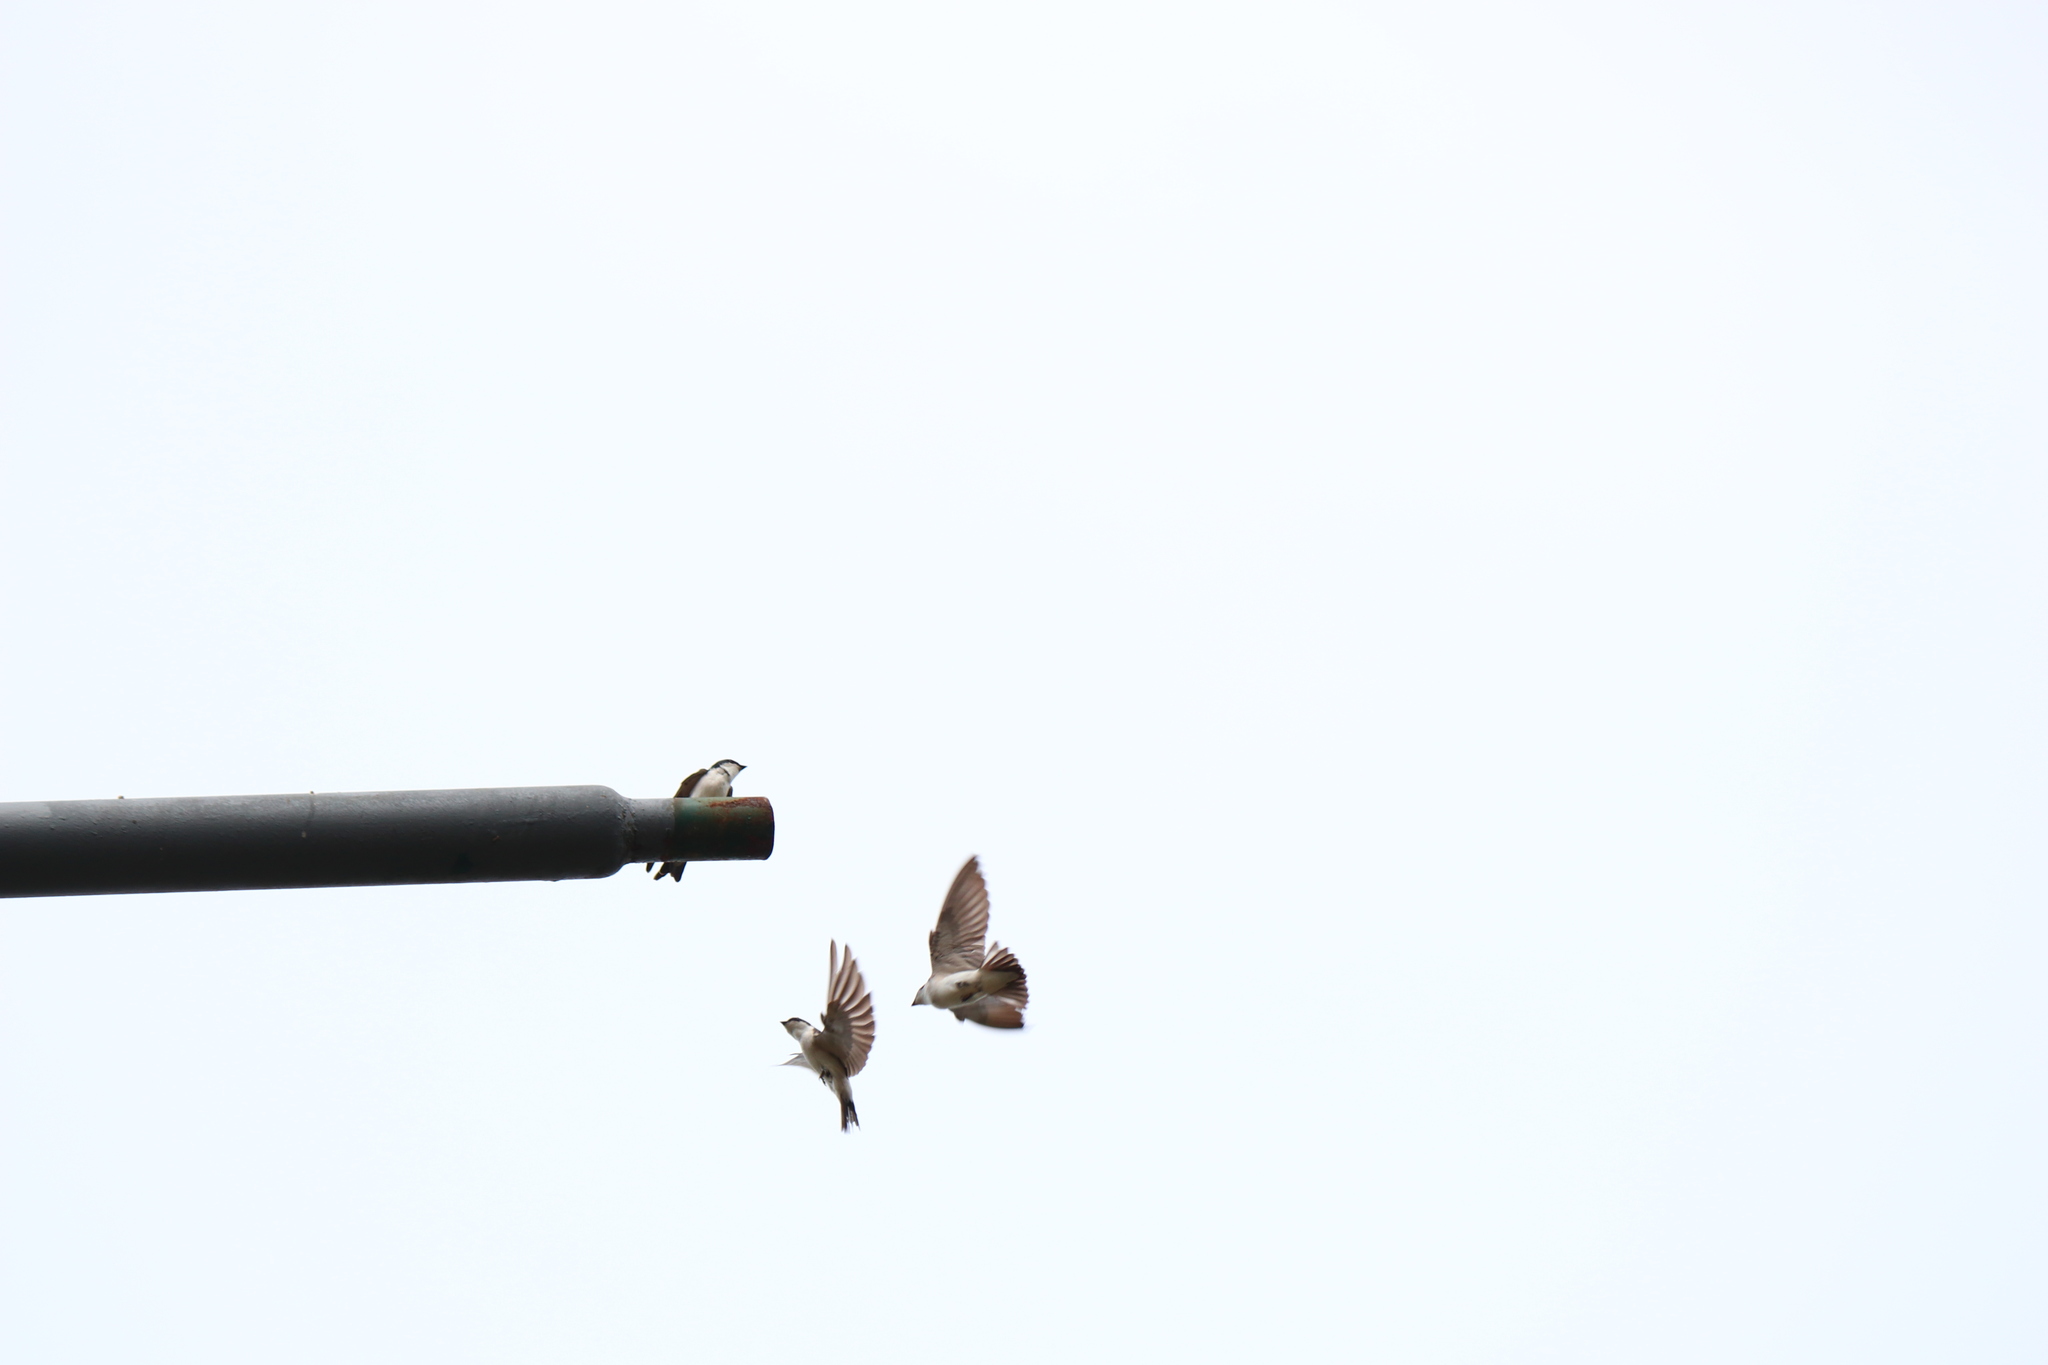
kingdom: Animalia
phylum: Chordata
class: Aves
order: Passeriformes
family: Hirundinidae
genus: Tachycineta
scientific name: Tachycineta leucorrhoa
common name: White-rumped swallow
